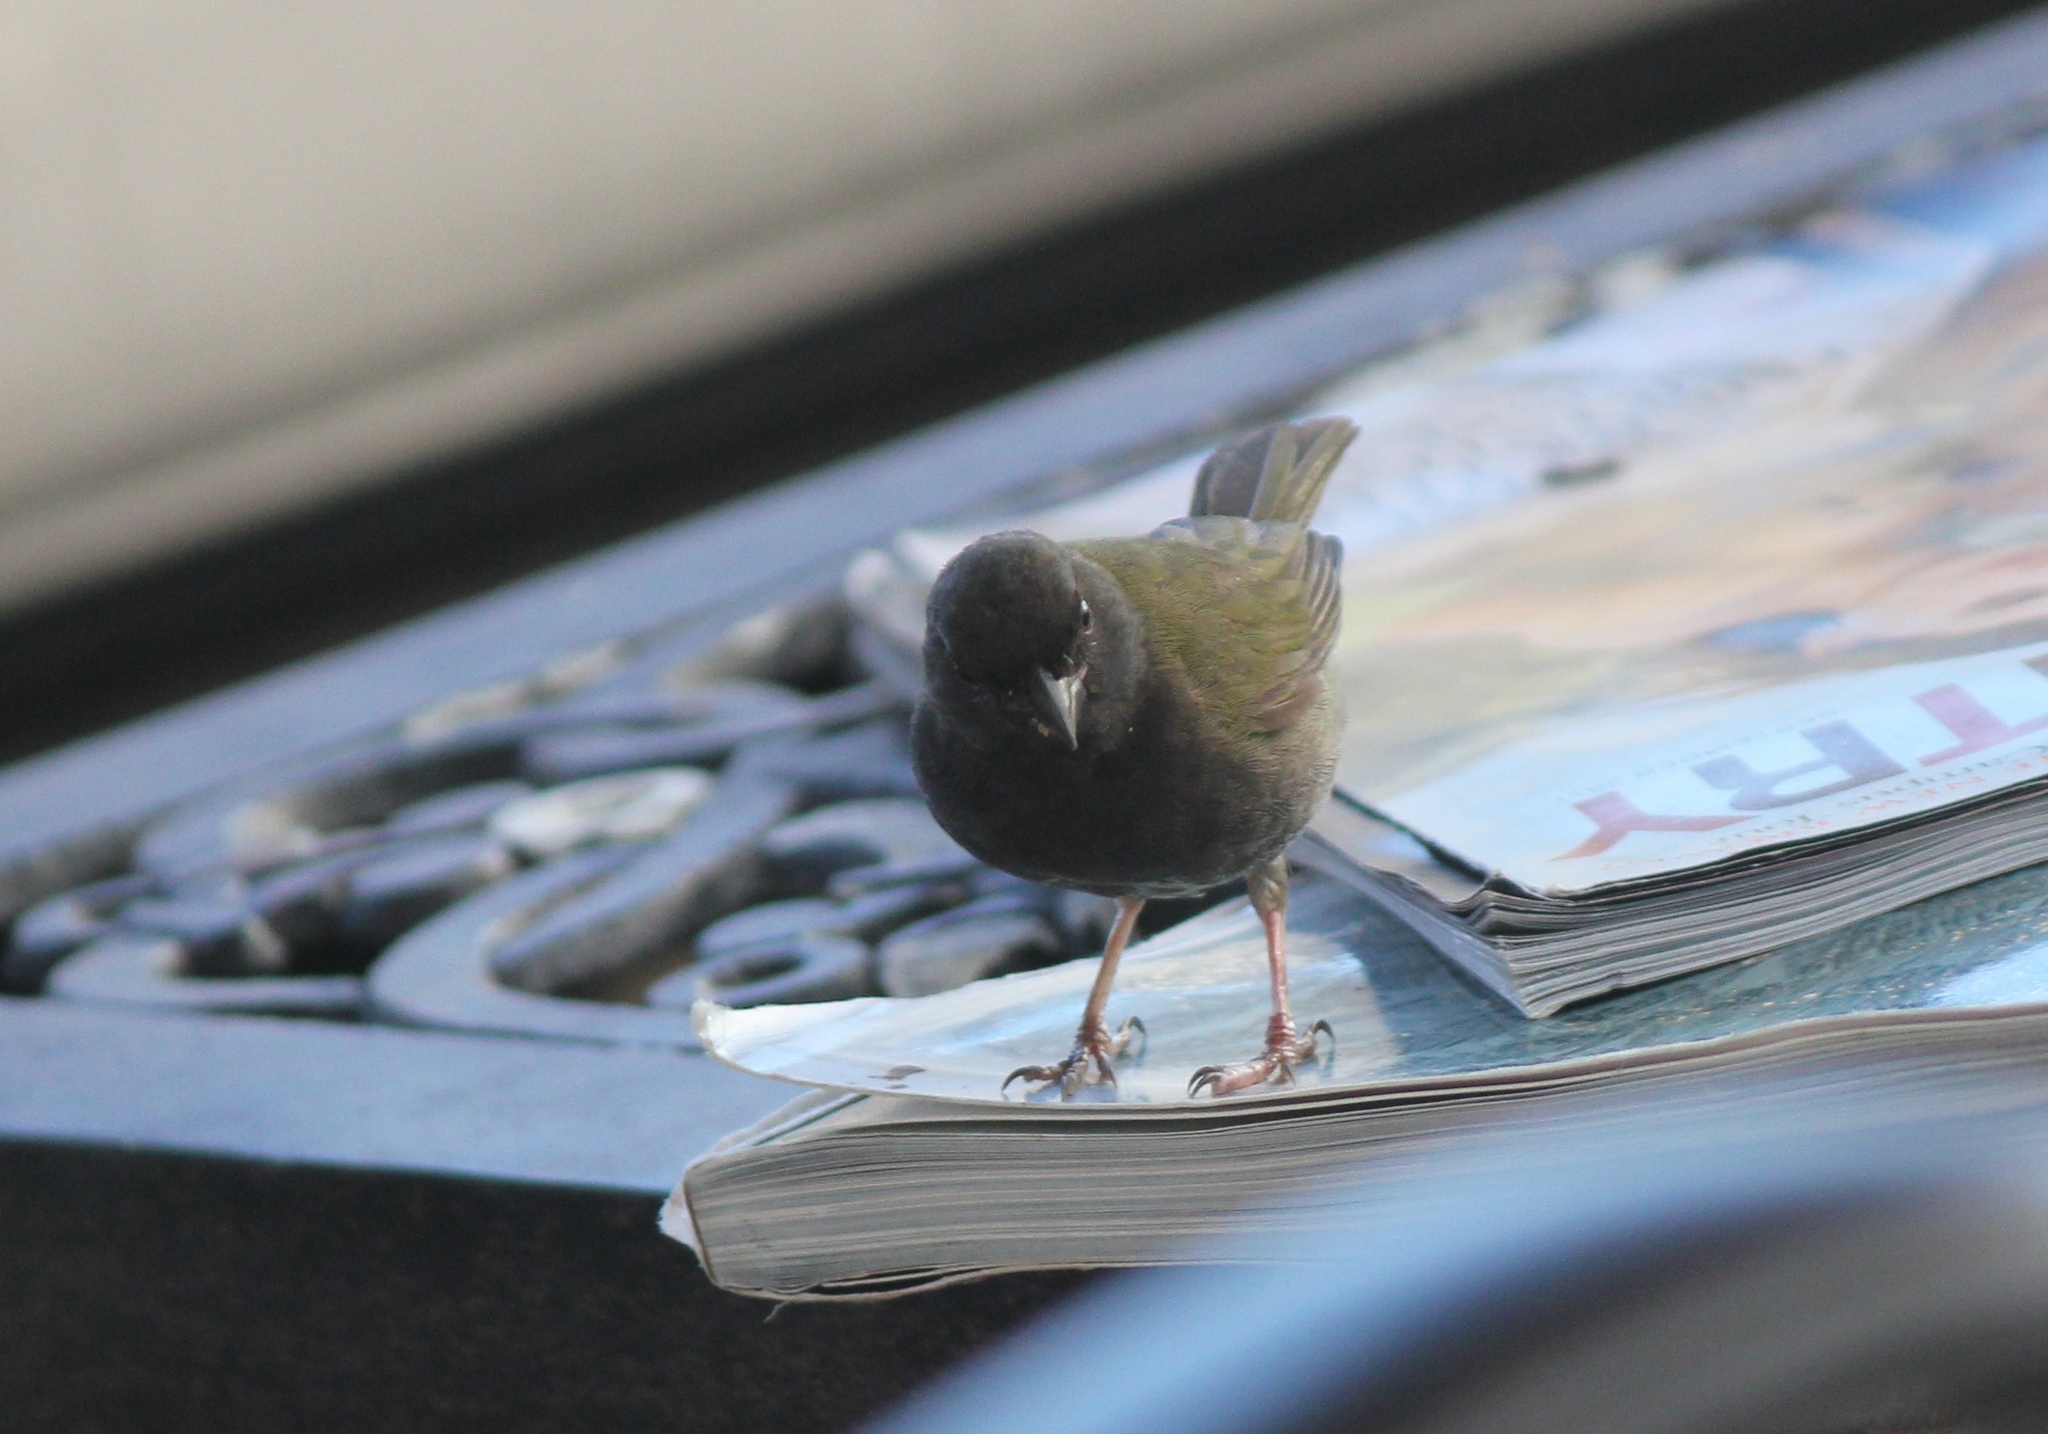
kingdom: Animalia
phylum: Chordata
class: Aves
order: Passeriformes
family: Thraupidae
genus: Melanospiza
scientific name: Melanospiza bicolor
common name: Black-faced grassquit
